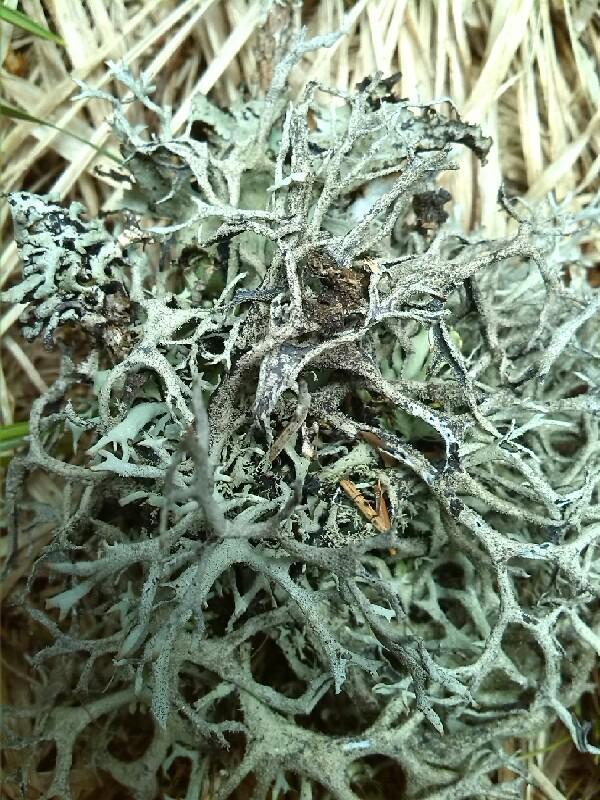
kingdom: Fungi
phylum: Ascomycota
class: Lecanoromycetes
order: Lecanorales
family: Parmeliaceae
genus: Pseudevernia
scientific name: Pseudevernia furfuracea
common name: Tree moss
